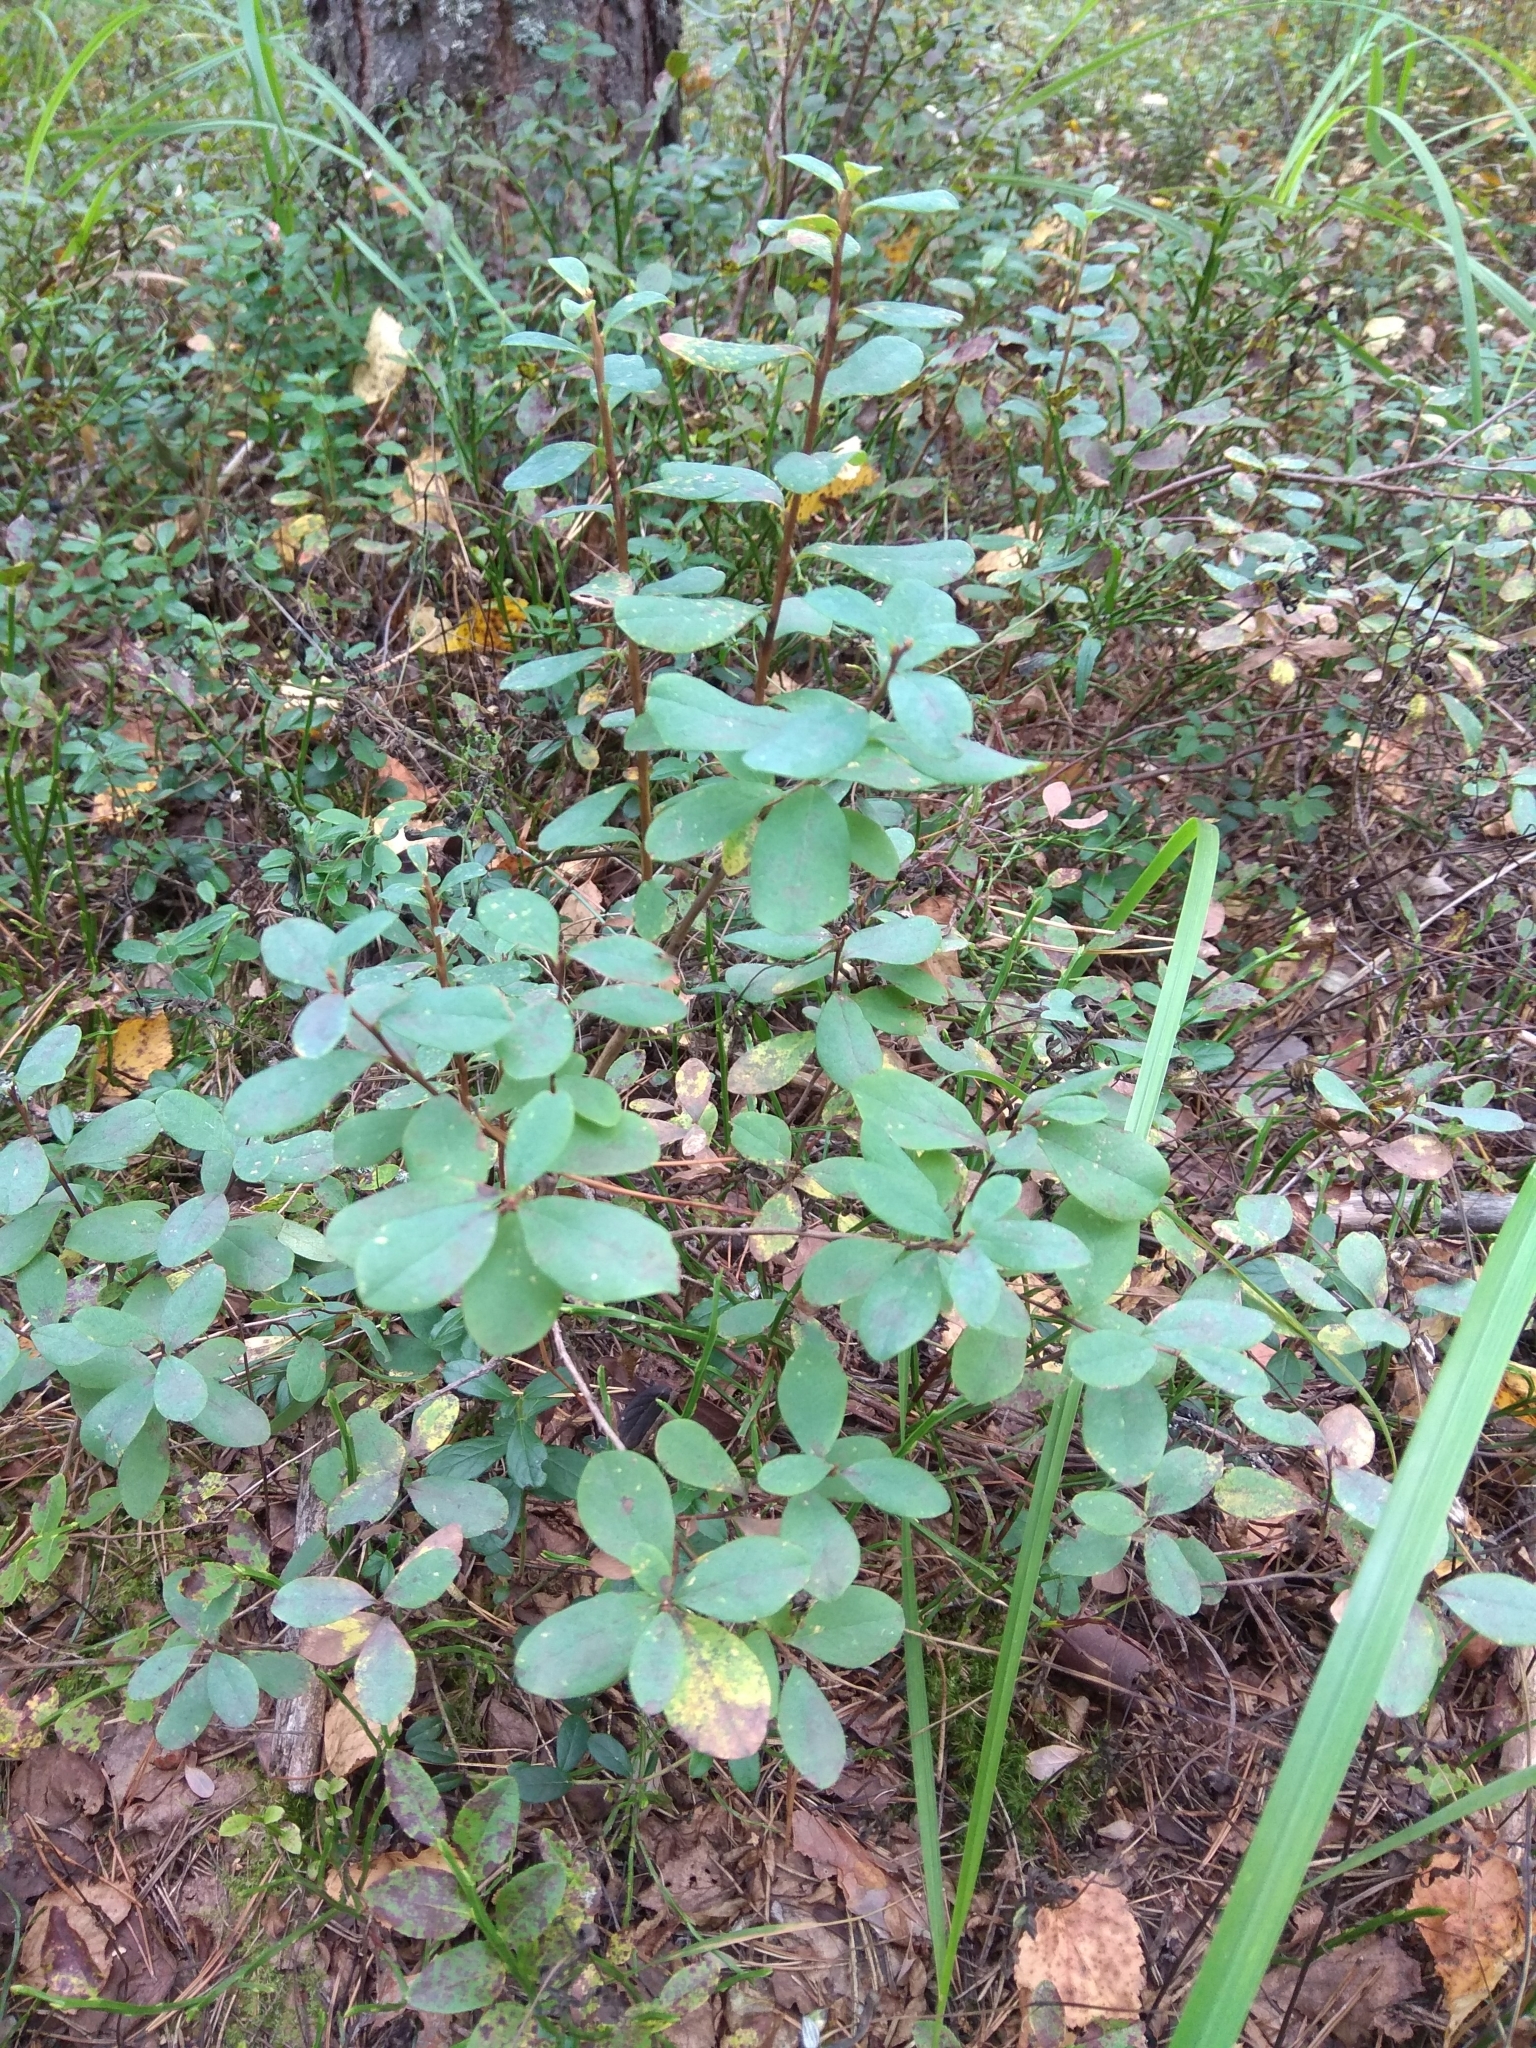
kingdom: Plantae
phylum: Tracheophyta
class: Magnoliopsida
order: Ericales
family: Ericaceae
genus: Vaccinium
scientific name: Vaccinium uliginosum
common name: Bog bilberry
